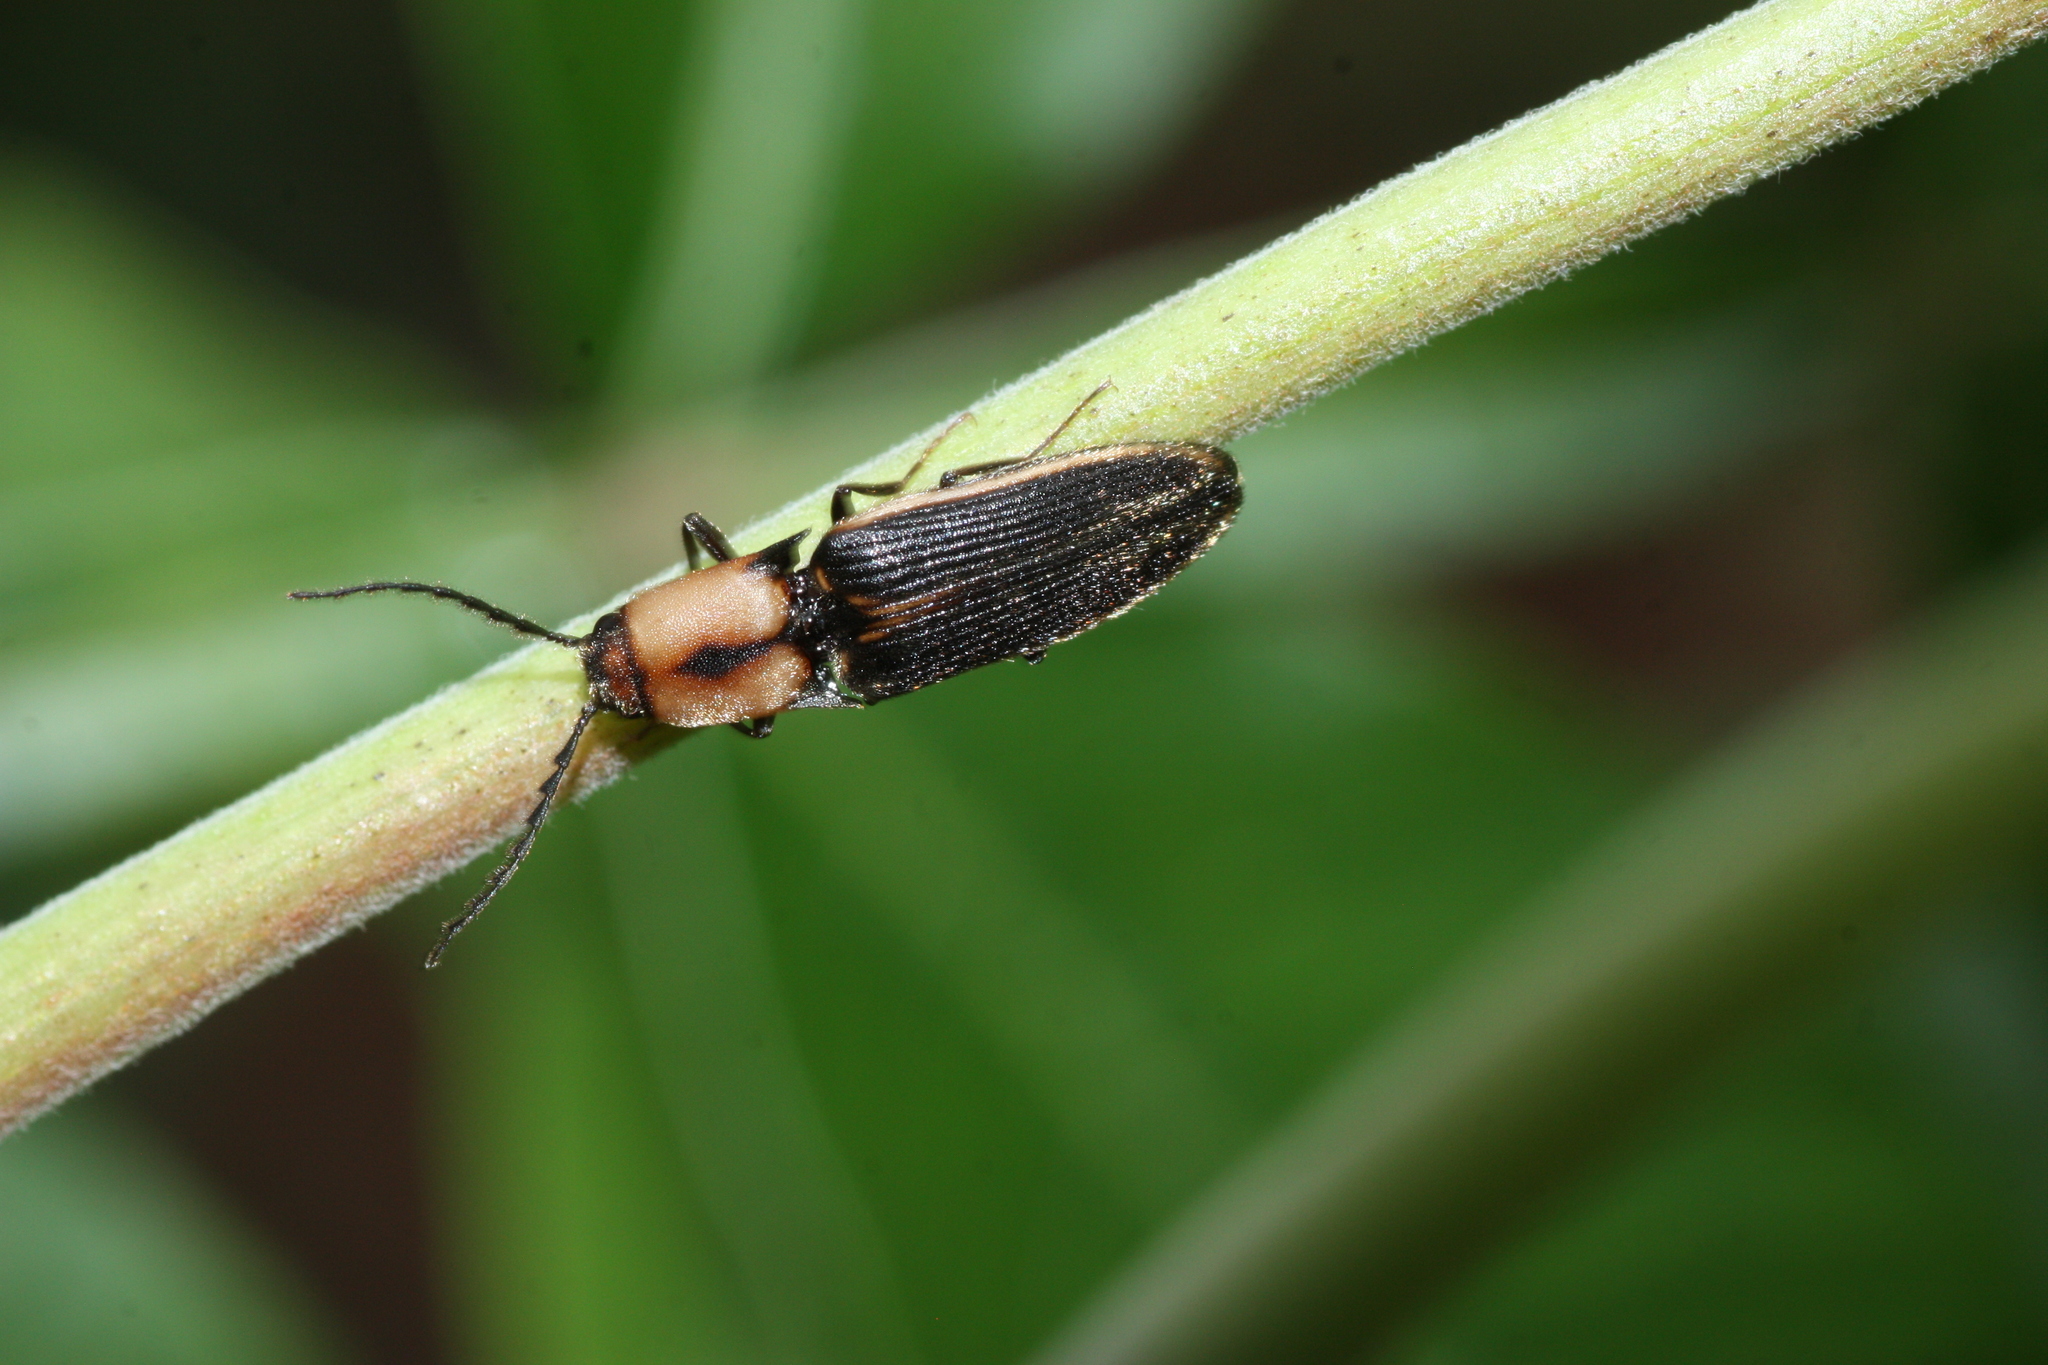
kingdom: Animalia
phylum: Arthropoda
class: Insecta
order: Coleoptera
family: Elateridae
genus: Megapenthes
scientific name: Megapenthes
